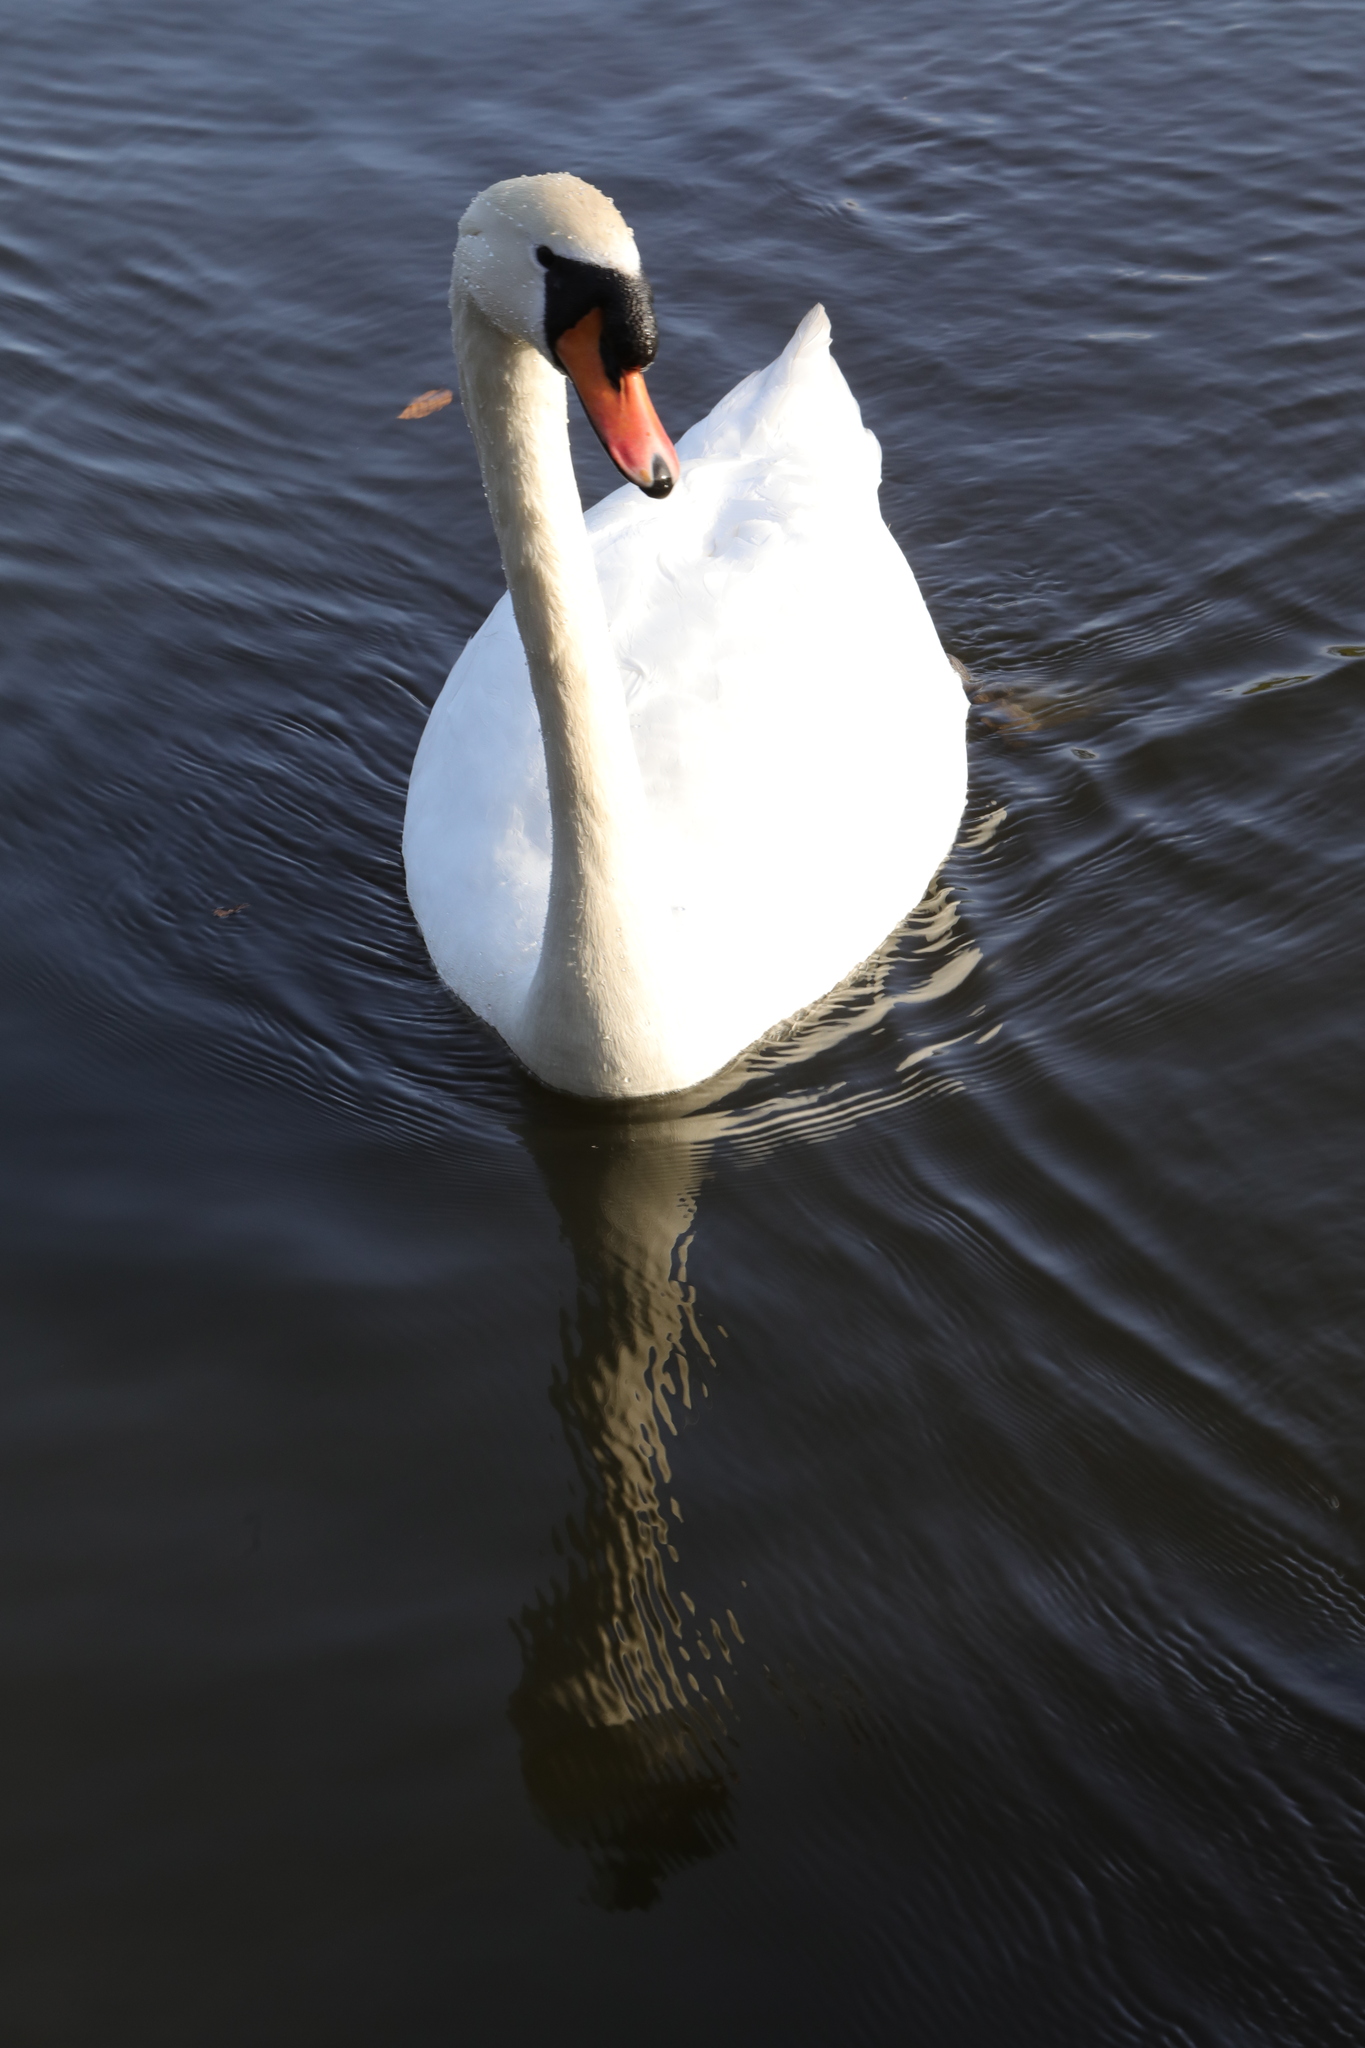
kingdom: Animalia
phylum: Chordata
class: Aves
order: Anseriformes
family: Anatidae
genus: Cygnus
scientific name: Cygnus olor
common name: Mute swan
